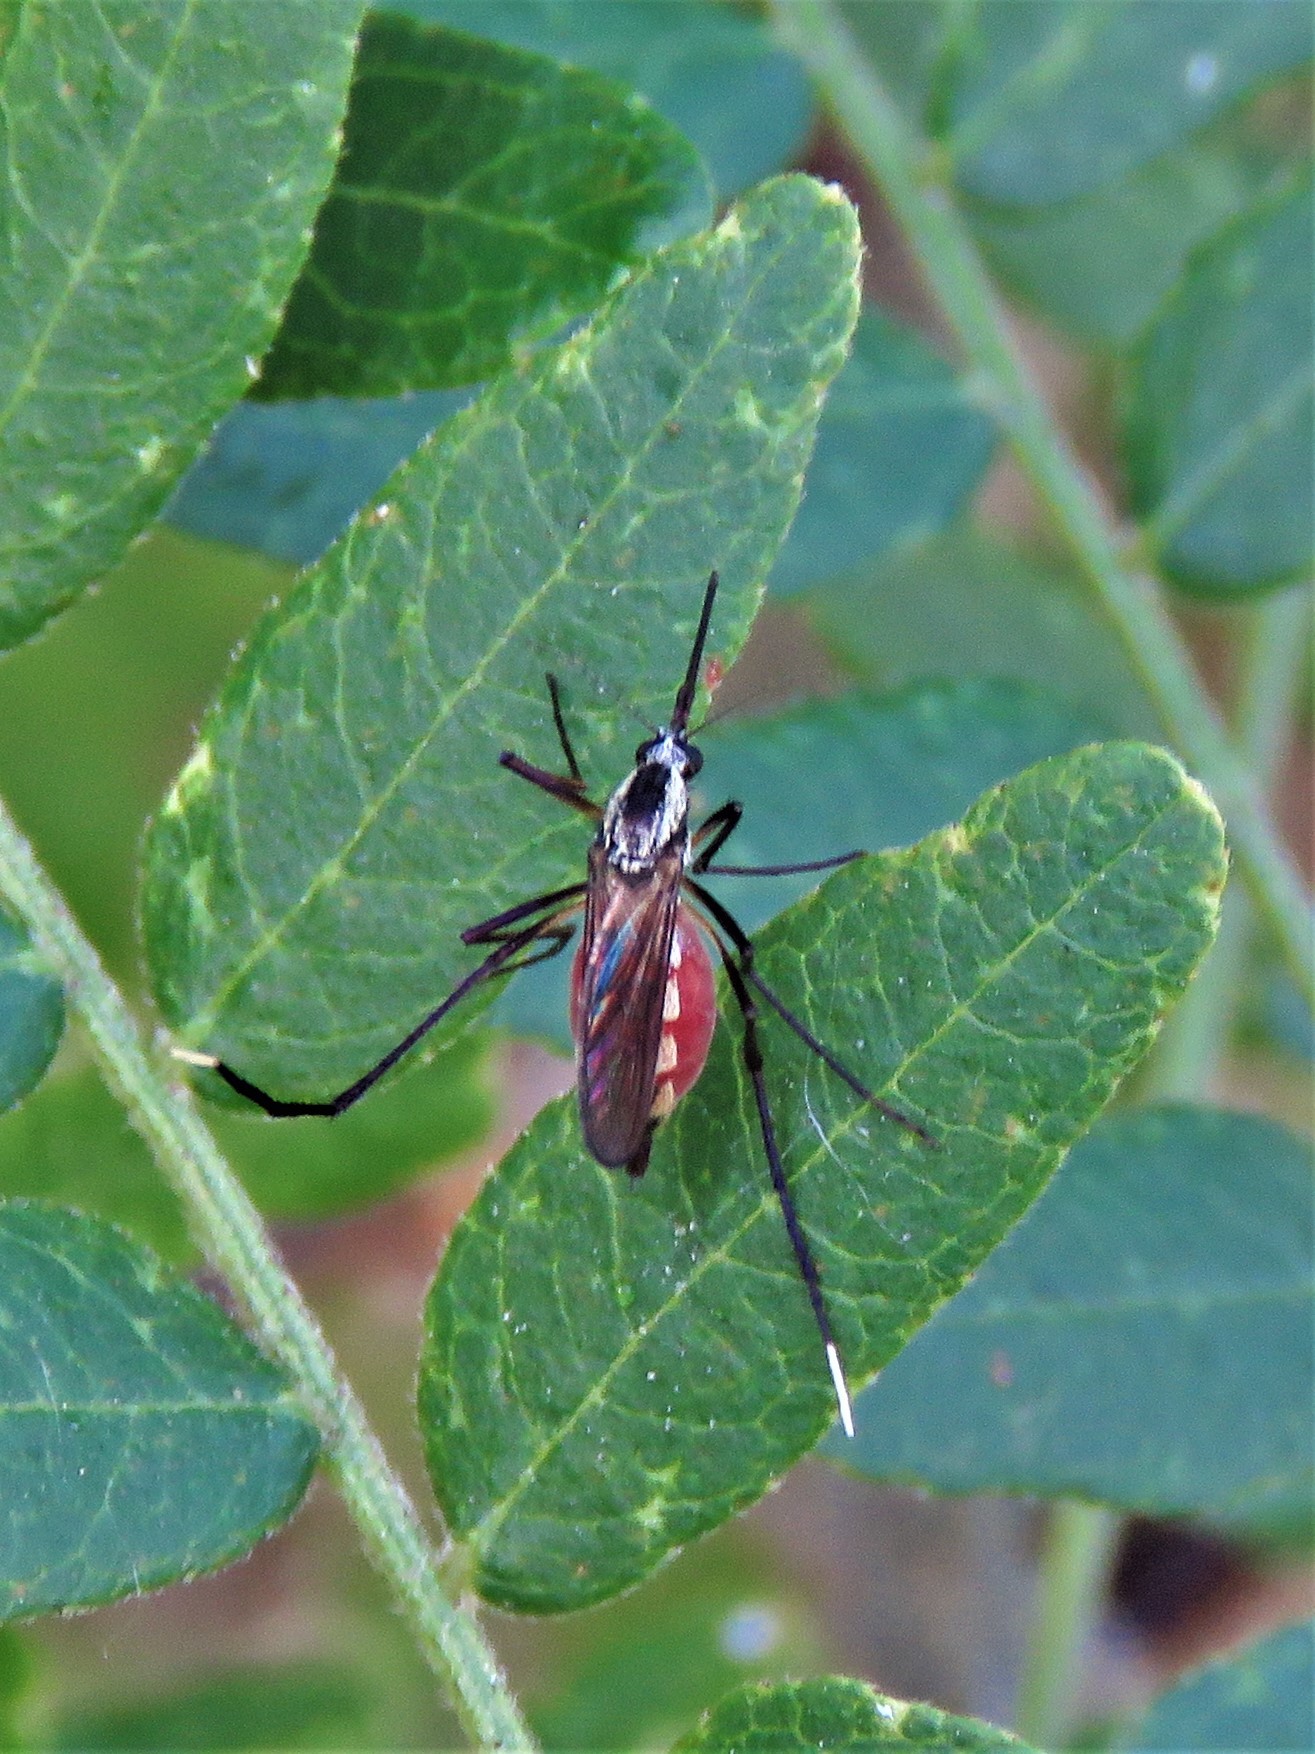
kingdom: Animalia
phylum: Arthropoda
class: Insecta
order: Diptera
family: Culicidae
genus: Psorophora
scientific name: Psorophora longipalpus
